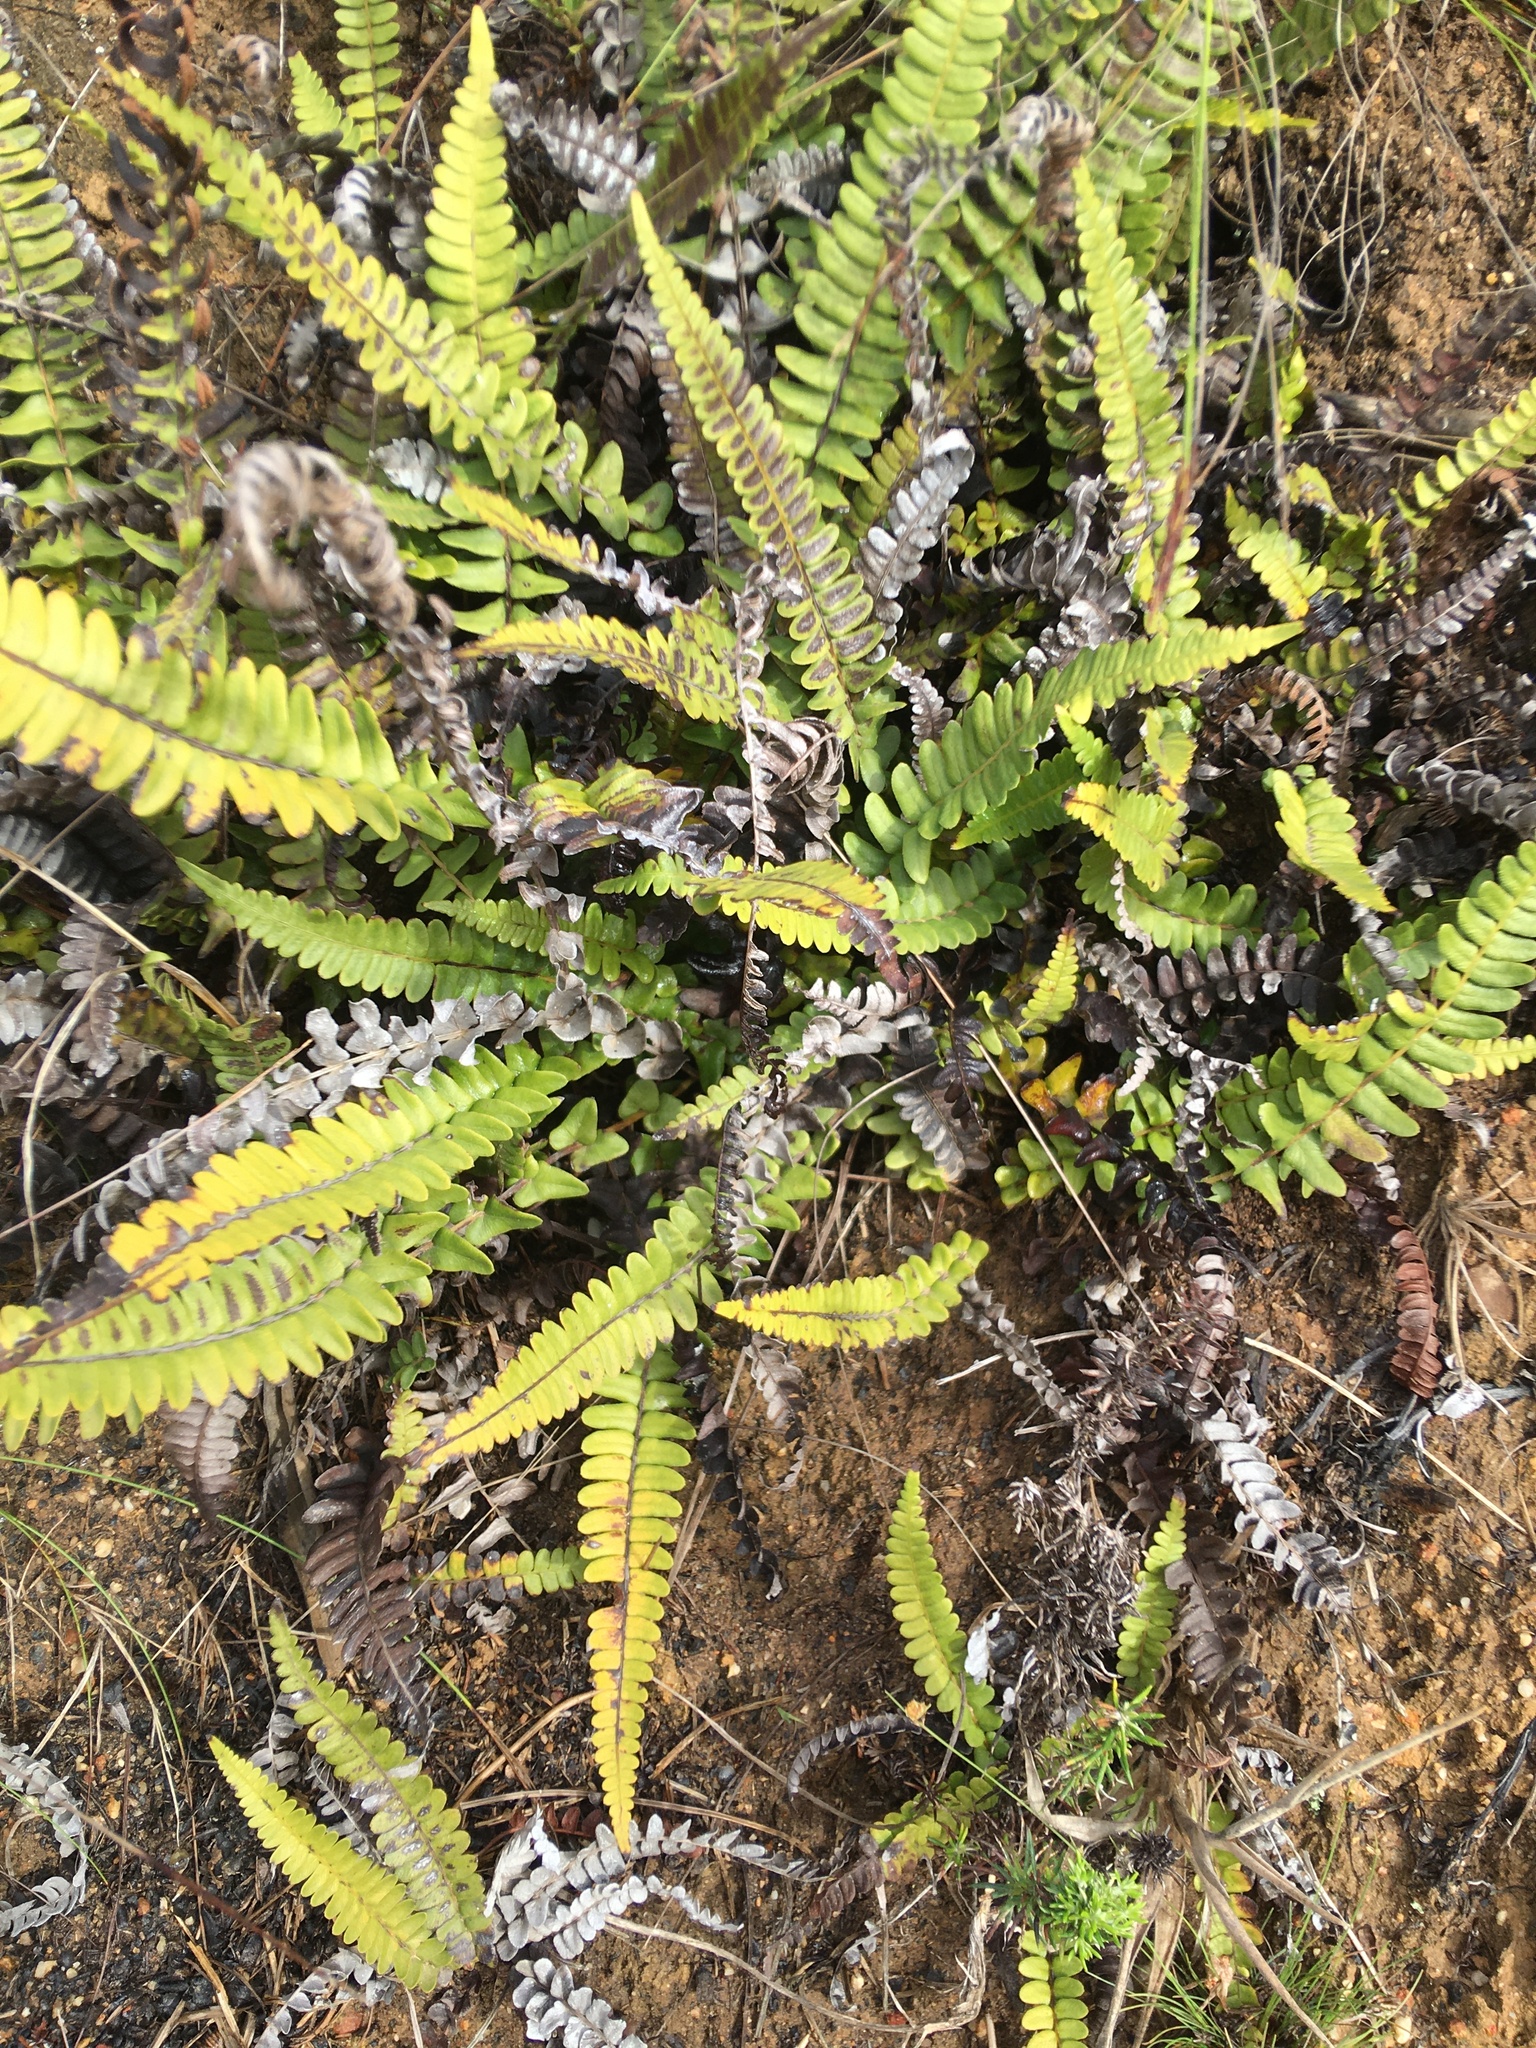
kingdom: Plantae
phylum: Tracheophyta
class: Polypodiopsida
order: Polypodiales
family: Blechnaceae
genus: Blechnum
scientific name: Blechnum australe
